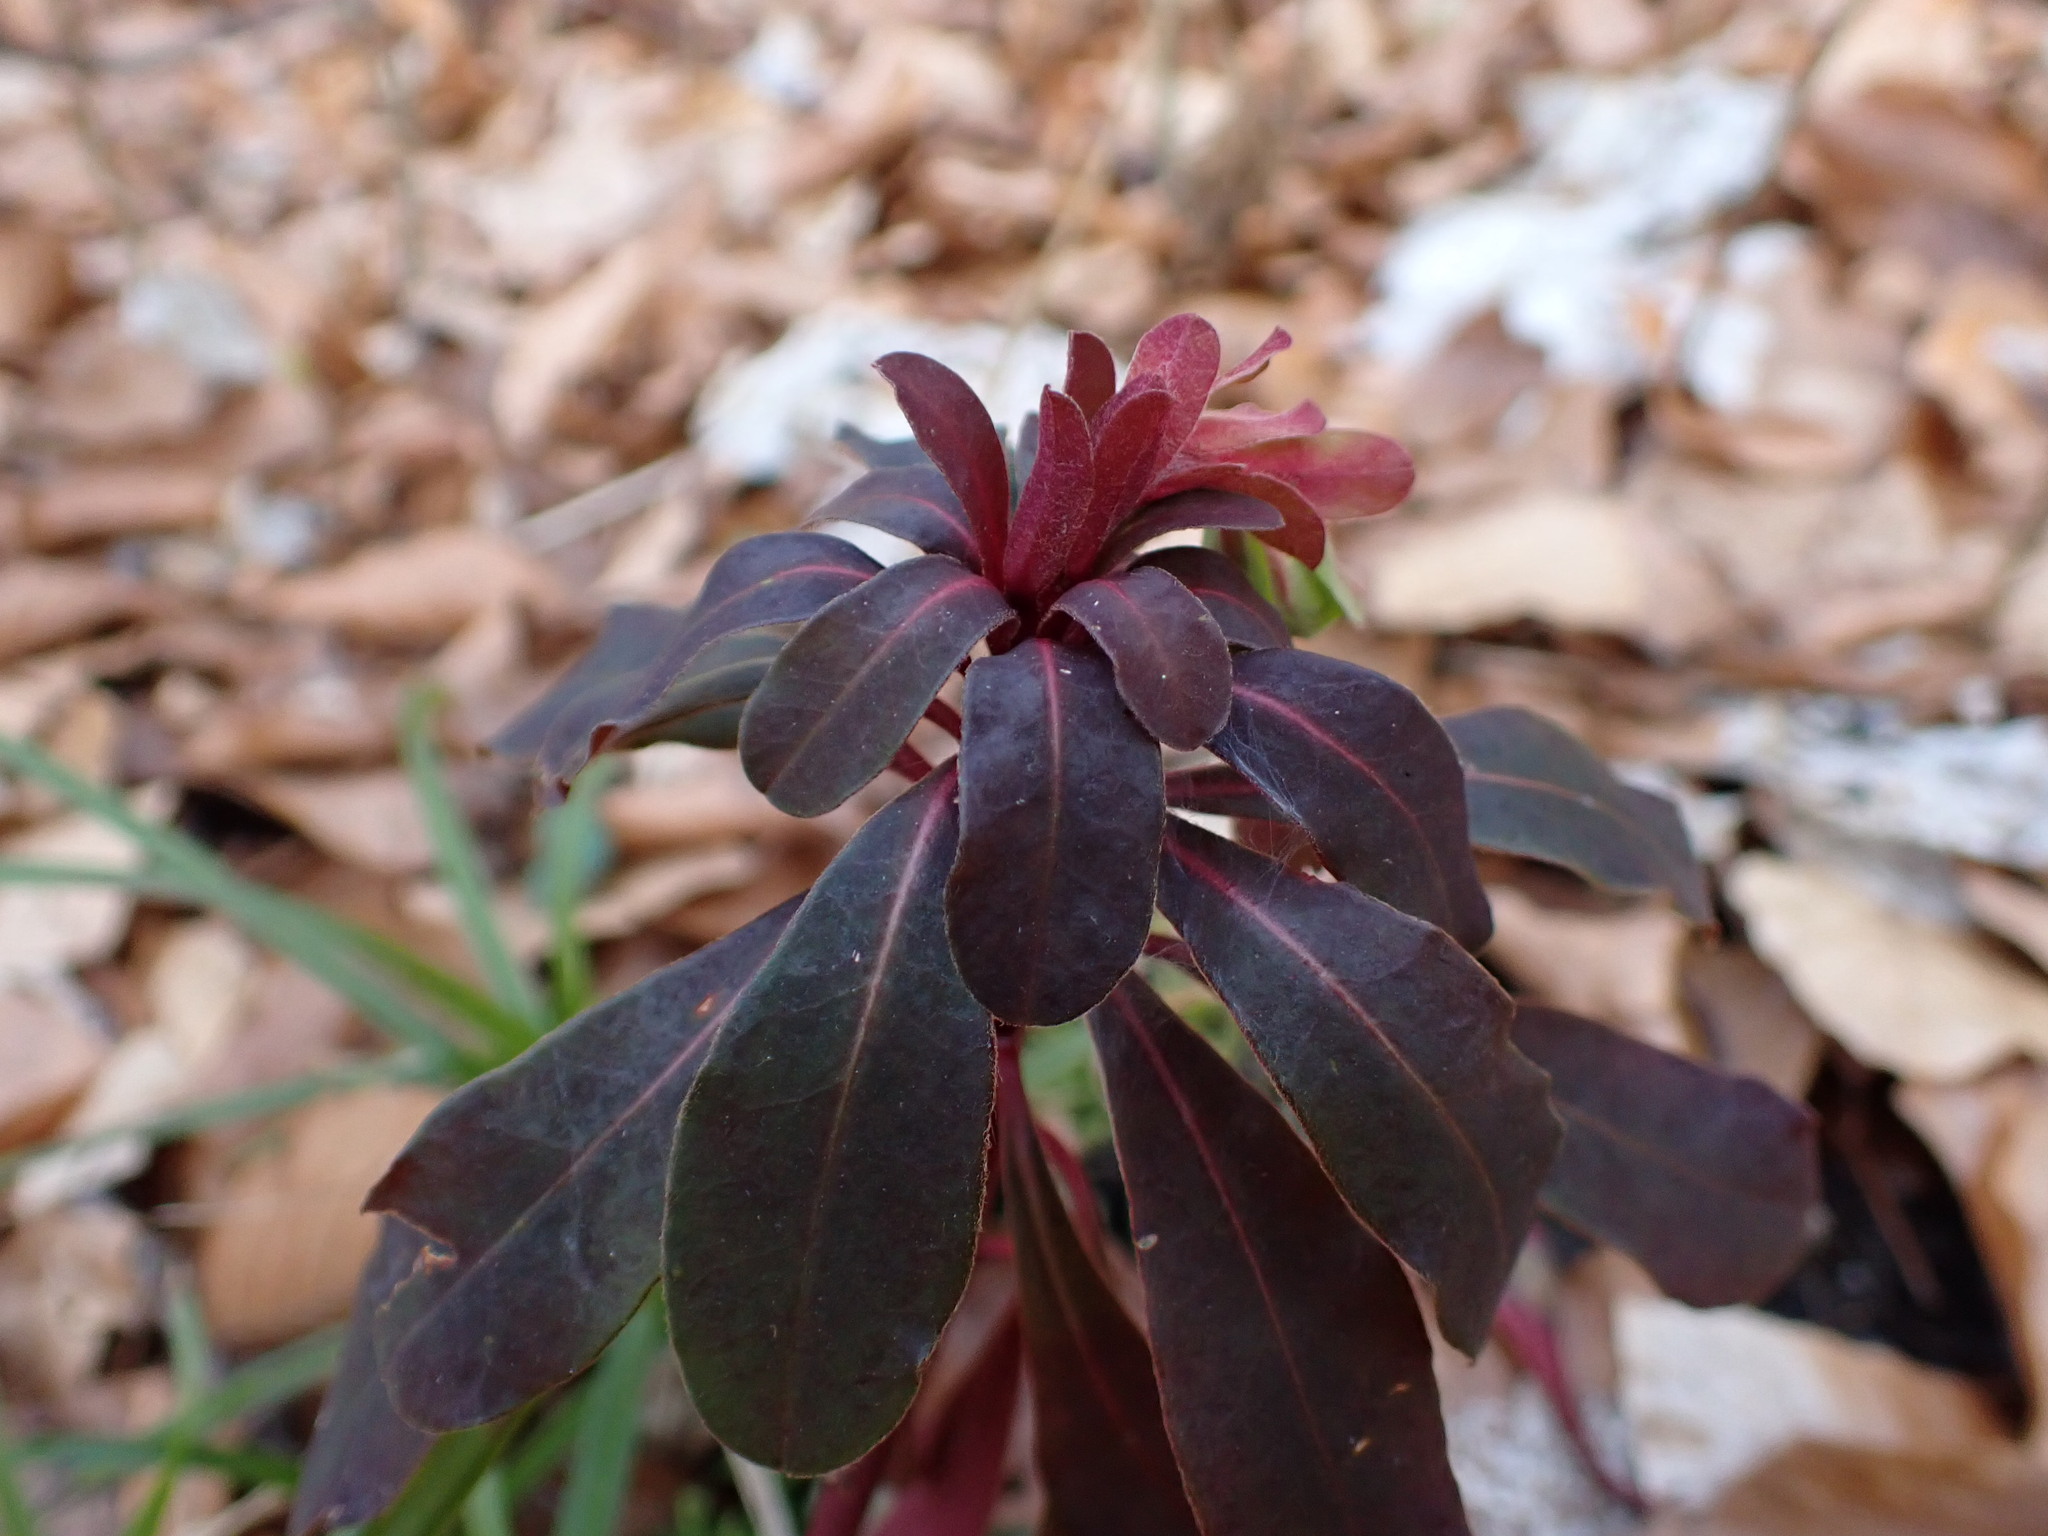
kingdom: Plantae
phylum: Tracheophyta
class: Magnoliopsida
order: Malpighiales
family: Euphorbiaceae
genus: Euphorbia
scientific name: Euphorbia amygdaloides
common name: Wood spurge
